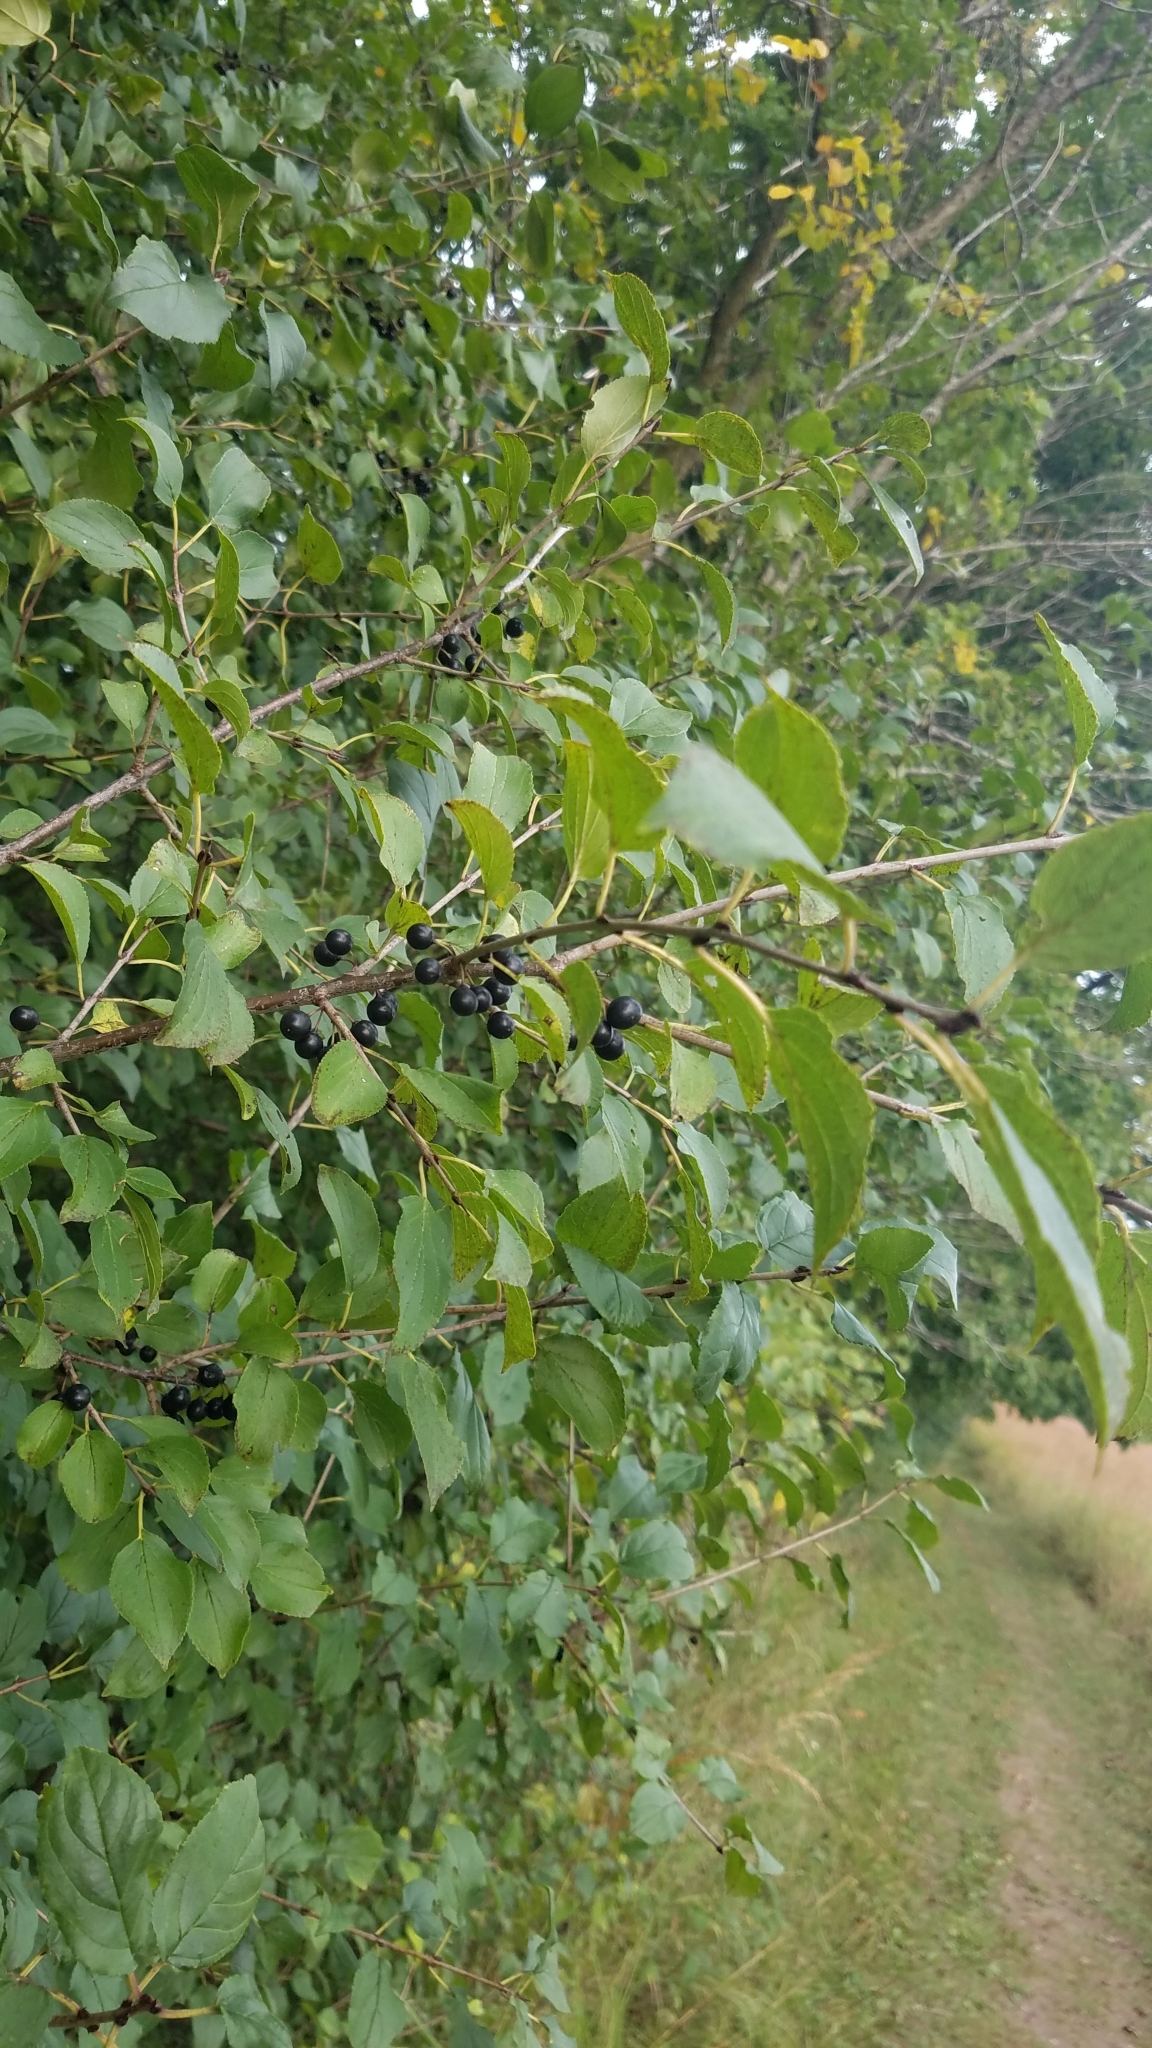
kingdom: Plantae
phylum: Tracheophyta
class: Magnoliopsida
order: Rosales
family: Rhamnaceae
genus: Rhamnus
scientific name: Rhamnus cathartica
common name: Common buckthorn
